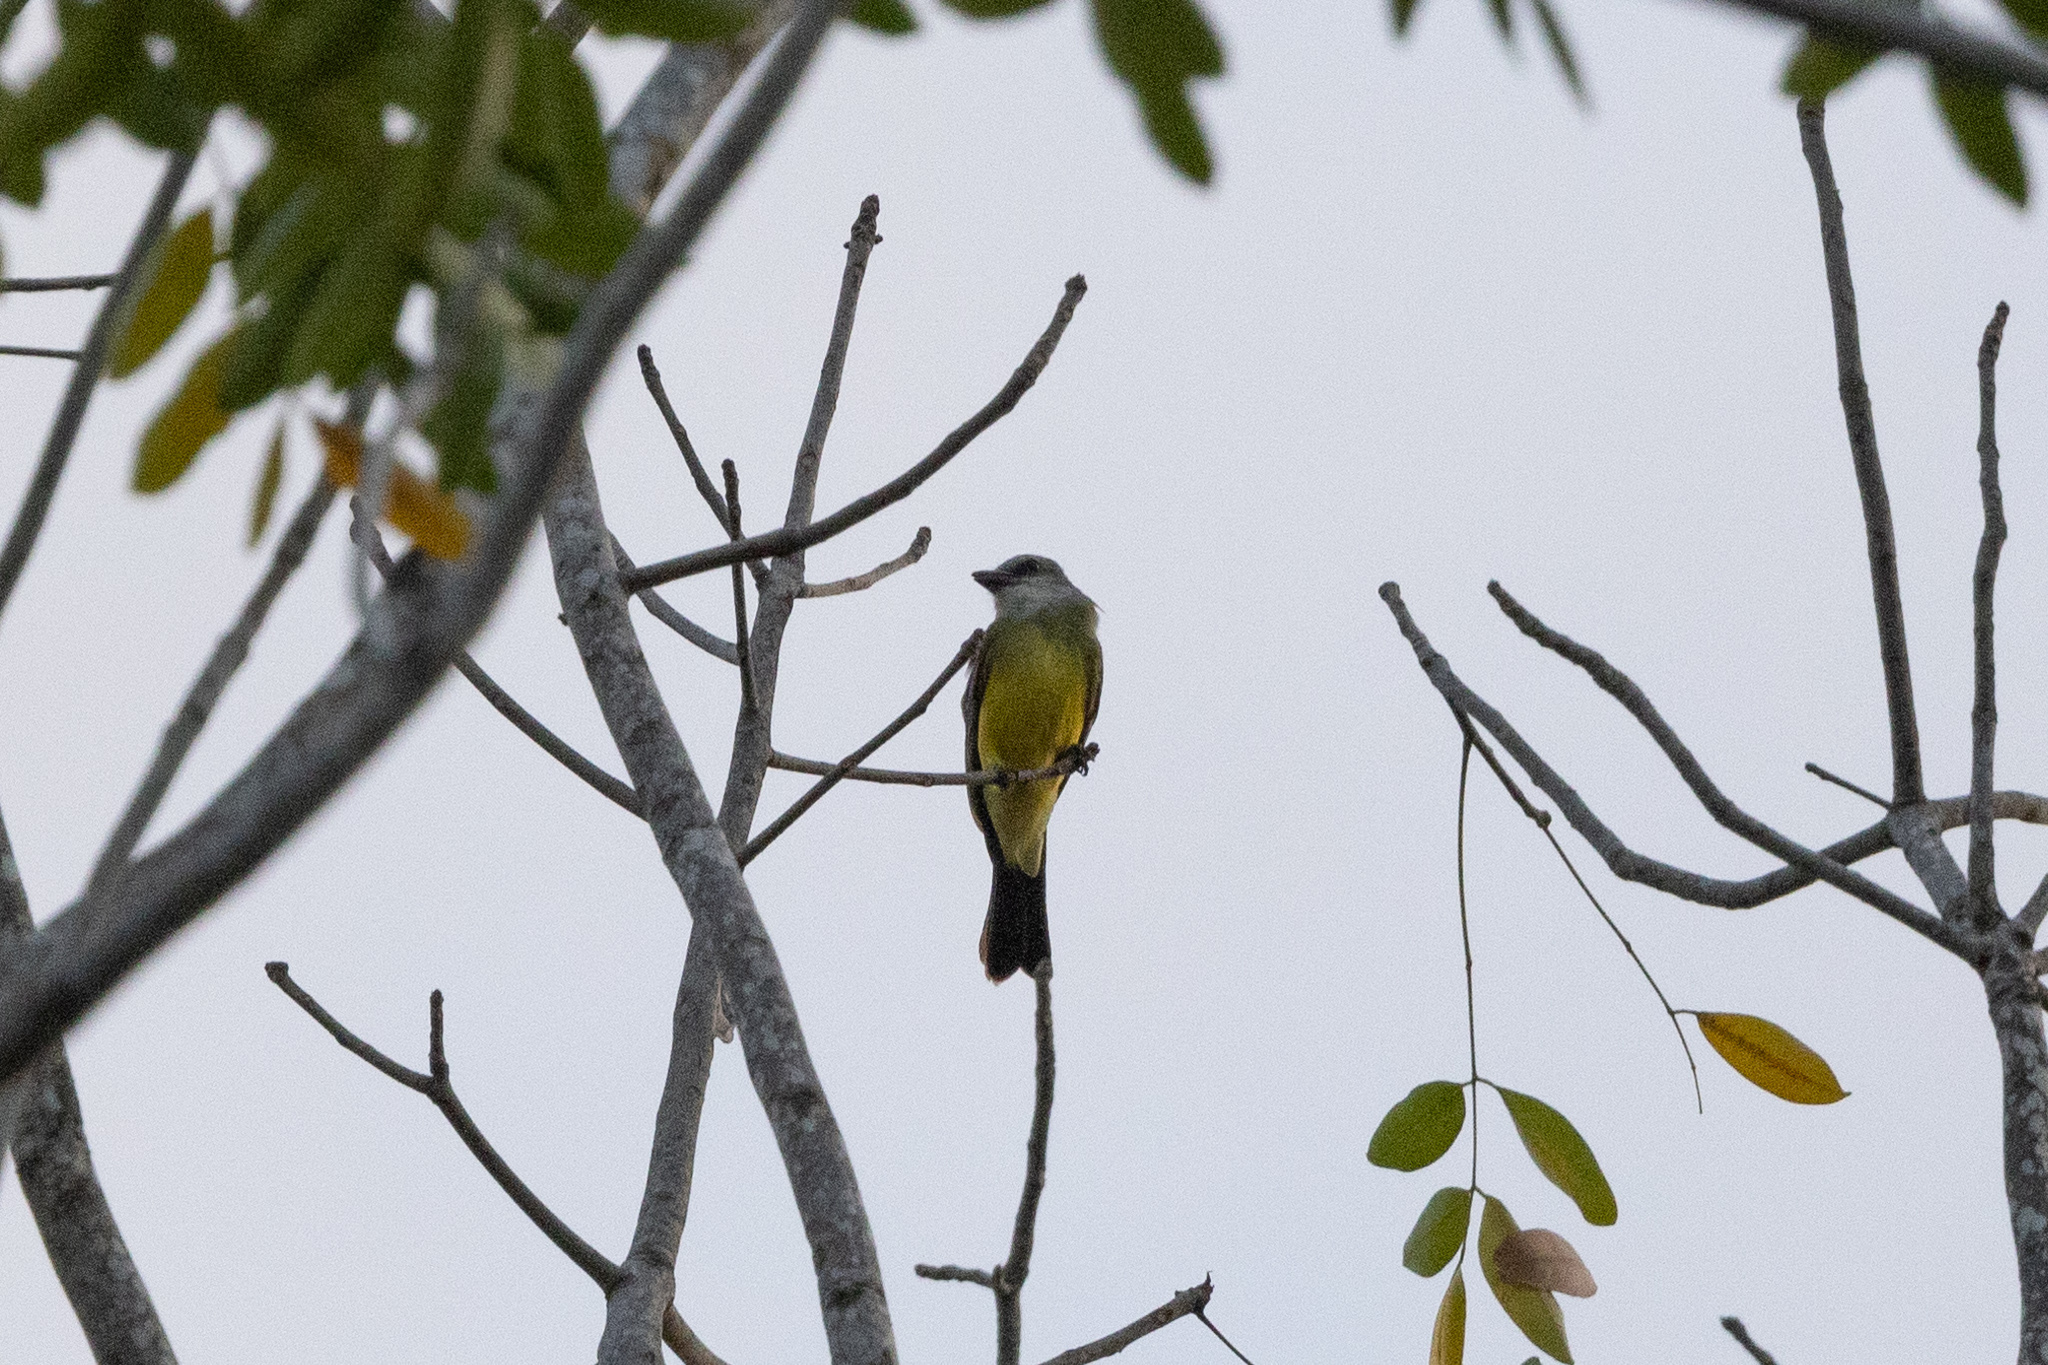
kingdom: Animalia
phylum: Chordata
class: Aves
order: Passeriformes
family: Tyrannidae
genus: Tyrannus
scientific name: Tyrannus melancholicus
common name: Tropical kingbird
